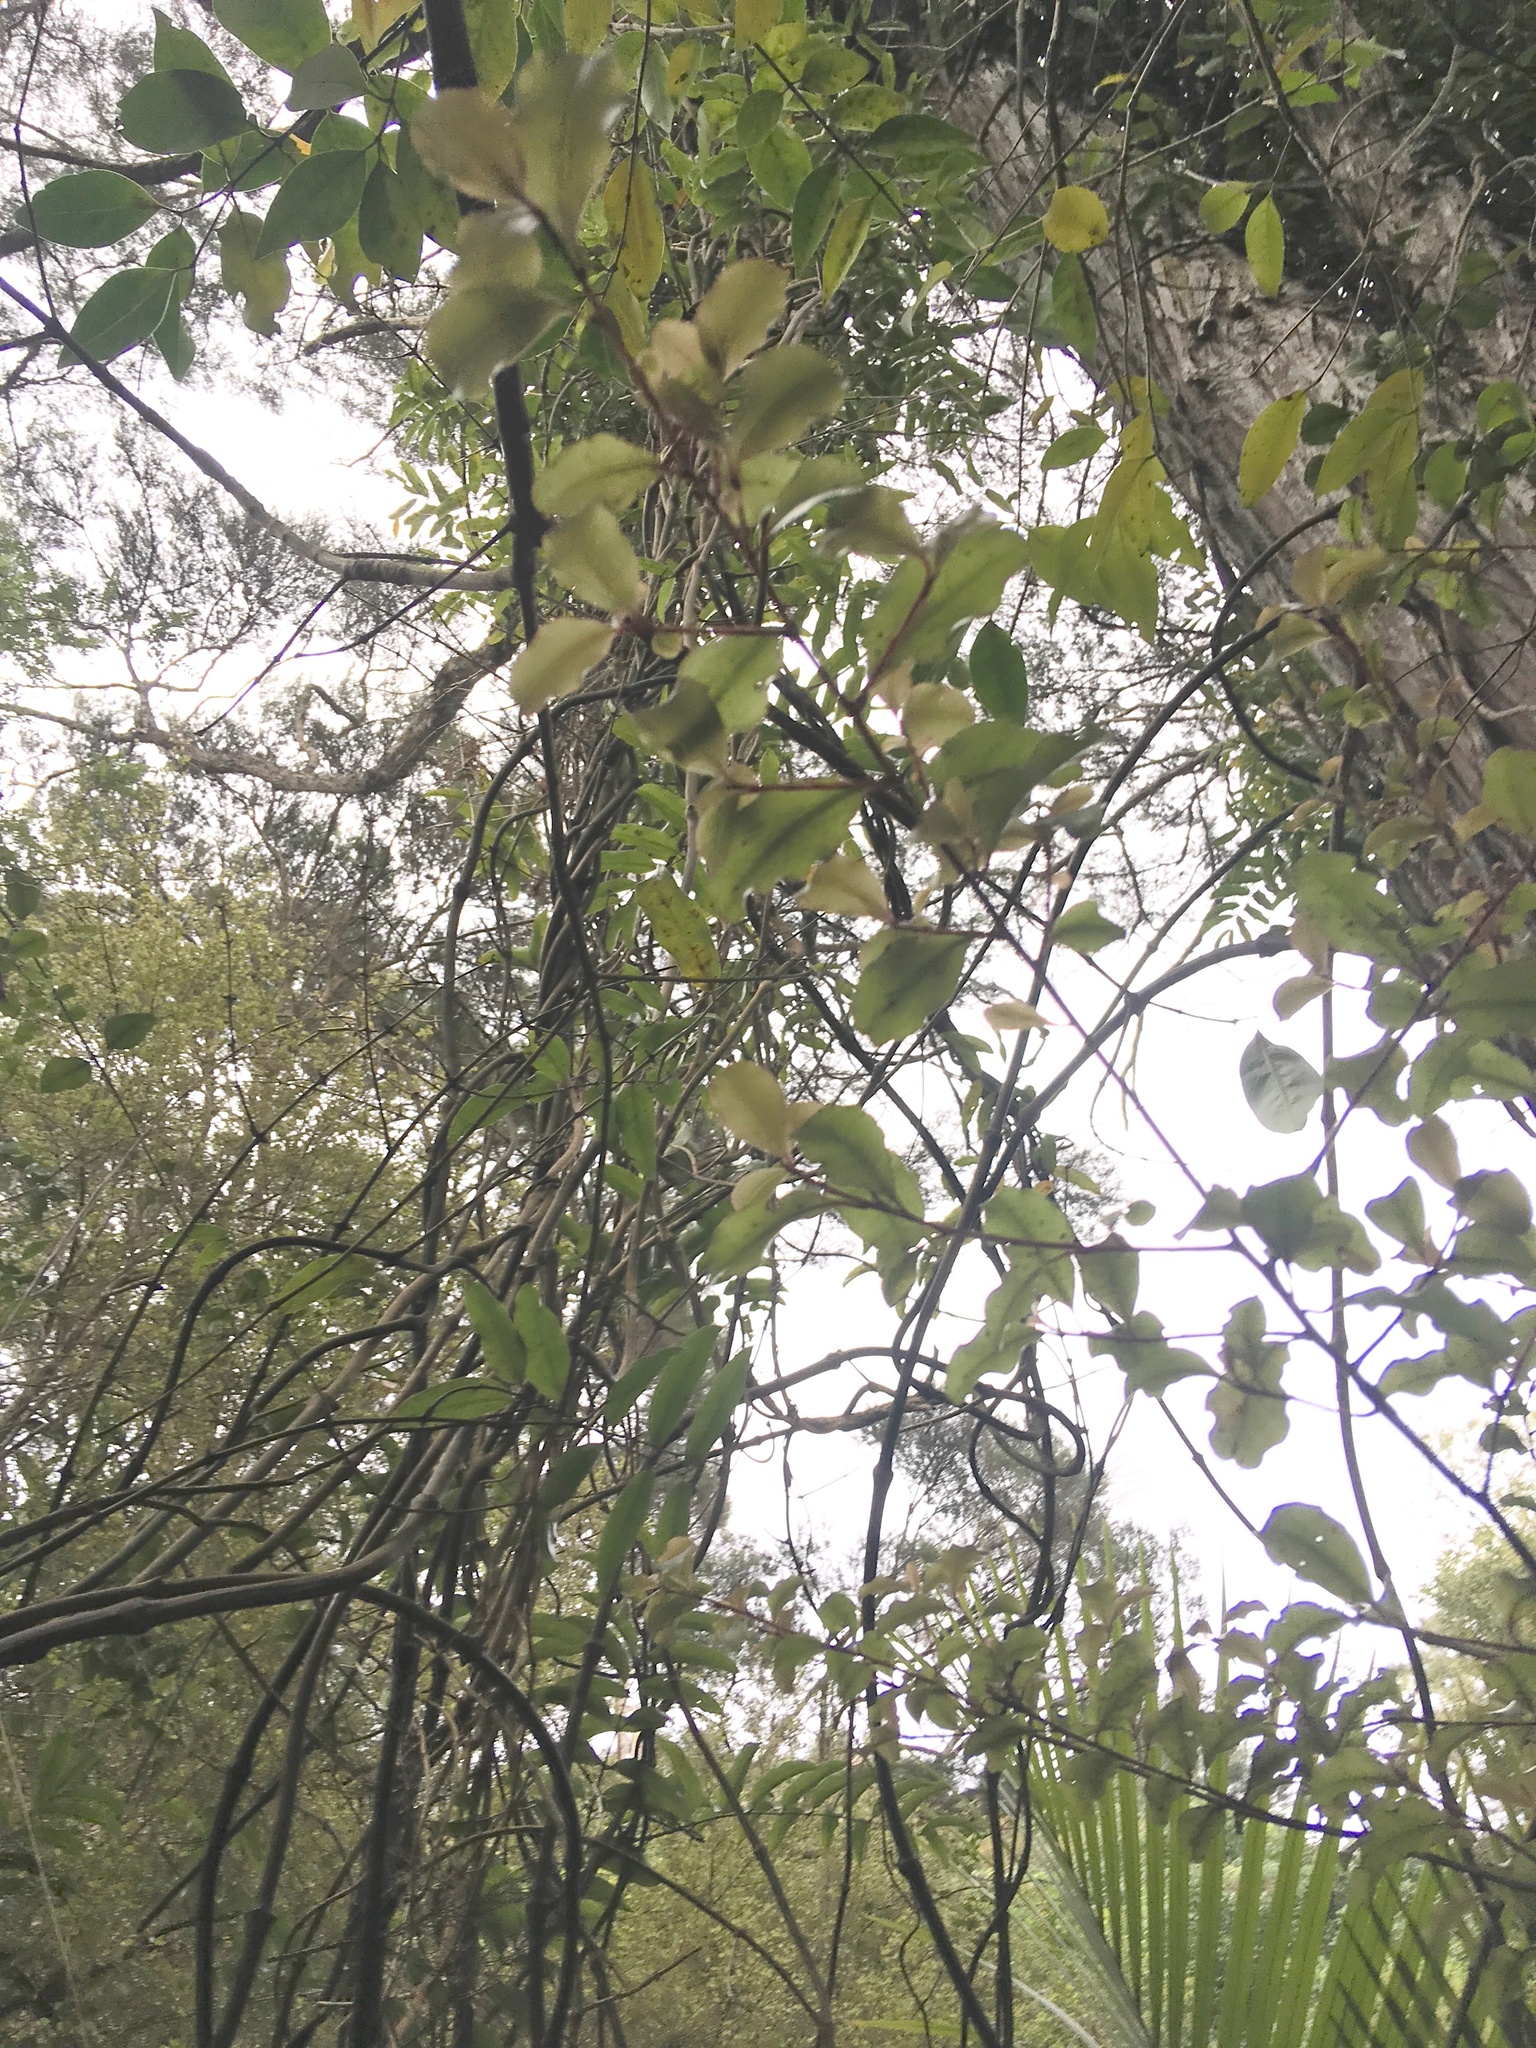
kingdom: Plantae
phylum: Tracheophyta
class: Liliopsida
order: Liliales
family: Ripogonaceae
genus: Ripogonum
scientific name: Ripogonum scandens
